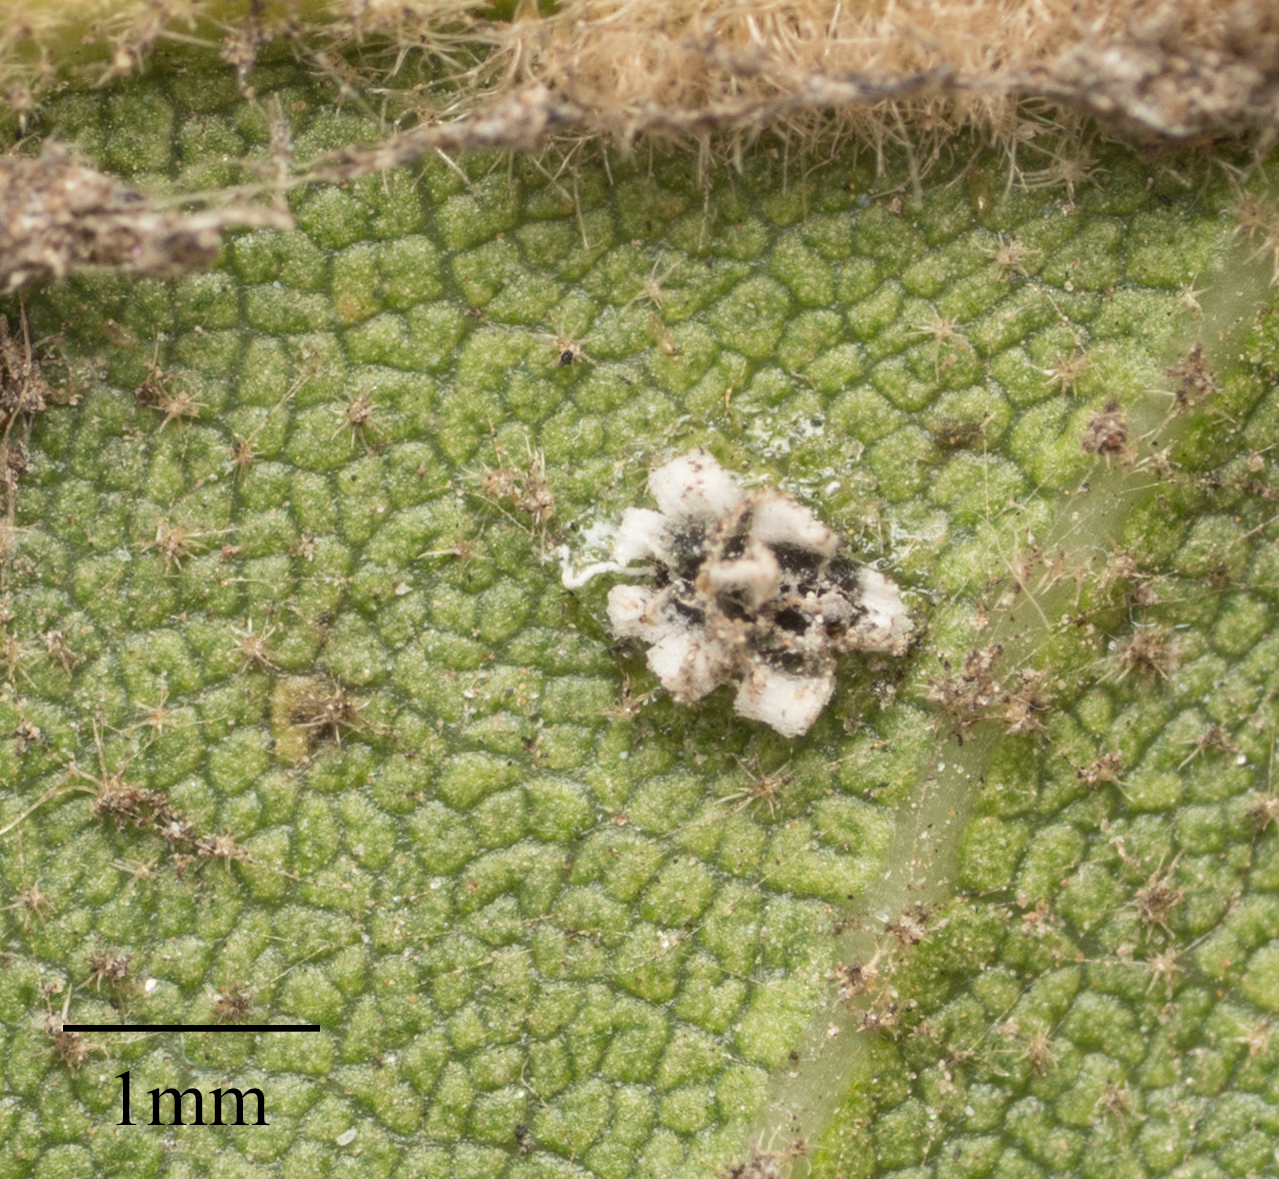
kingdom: Animalia
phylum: Arthropoda
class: Insecta
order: Hemiptera
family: Aleyrodidae
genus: Aleuroplatus
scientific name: Aleuroplatus coronata
